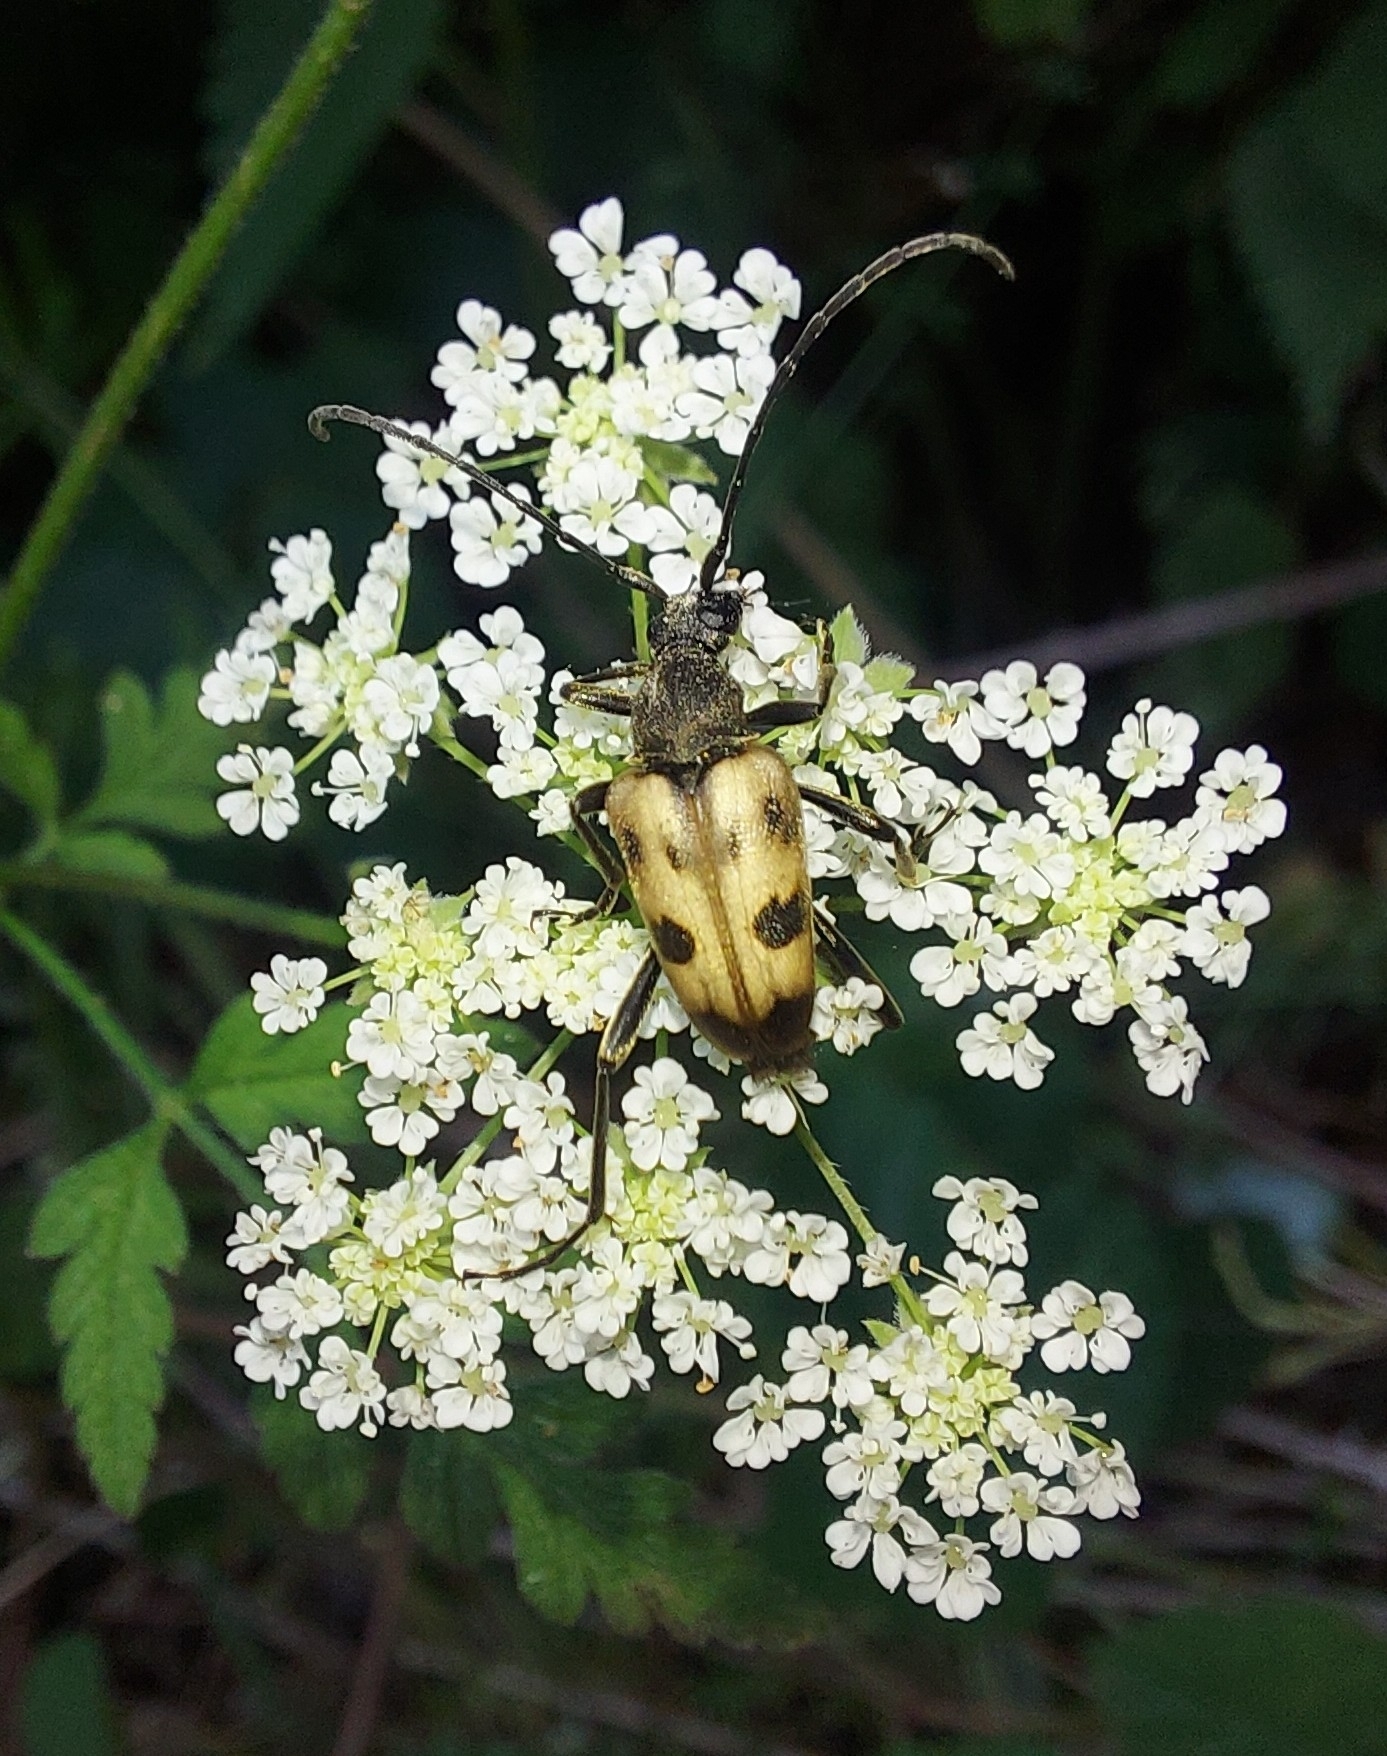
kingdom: Animalia
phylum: Arthropoda
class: Insecta
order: Coleoptera
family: Cerambycidae
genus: Pachytodes
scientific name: Pachytodes cerambyciformis
